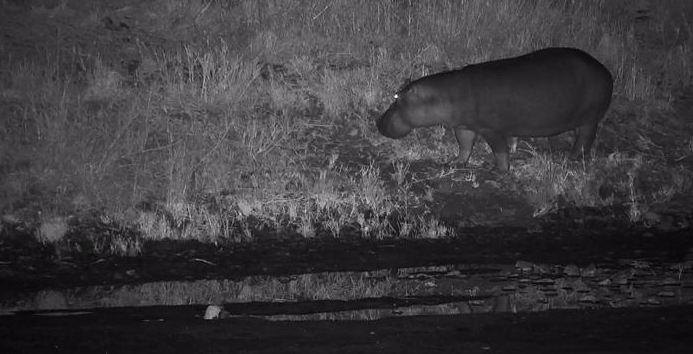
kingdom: Animalia
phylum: Chordata
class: Mammalia
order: Artiodactyla
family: Hippopotamidae
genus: Hippopotamus
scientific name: Hippopotamus amphibius
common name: Common hippopotamus
